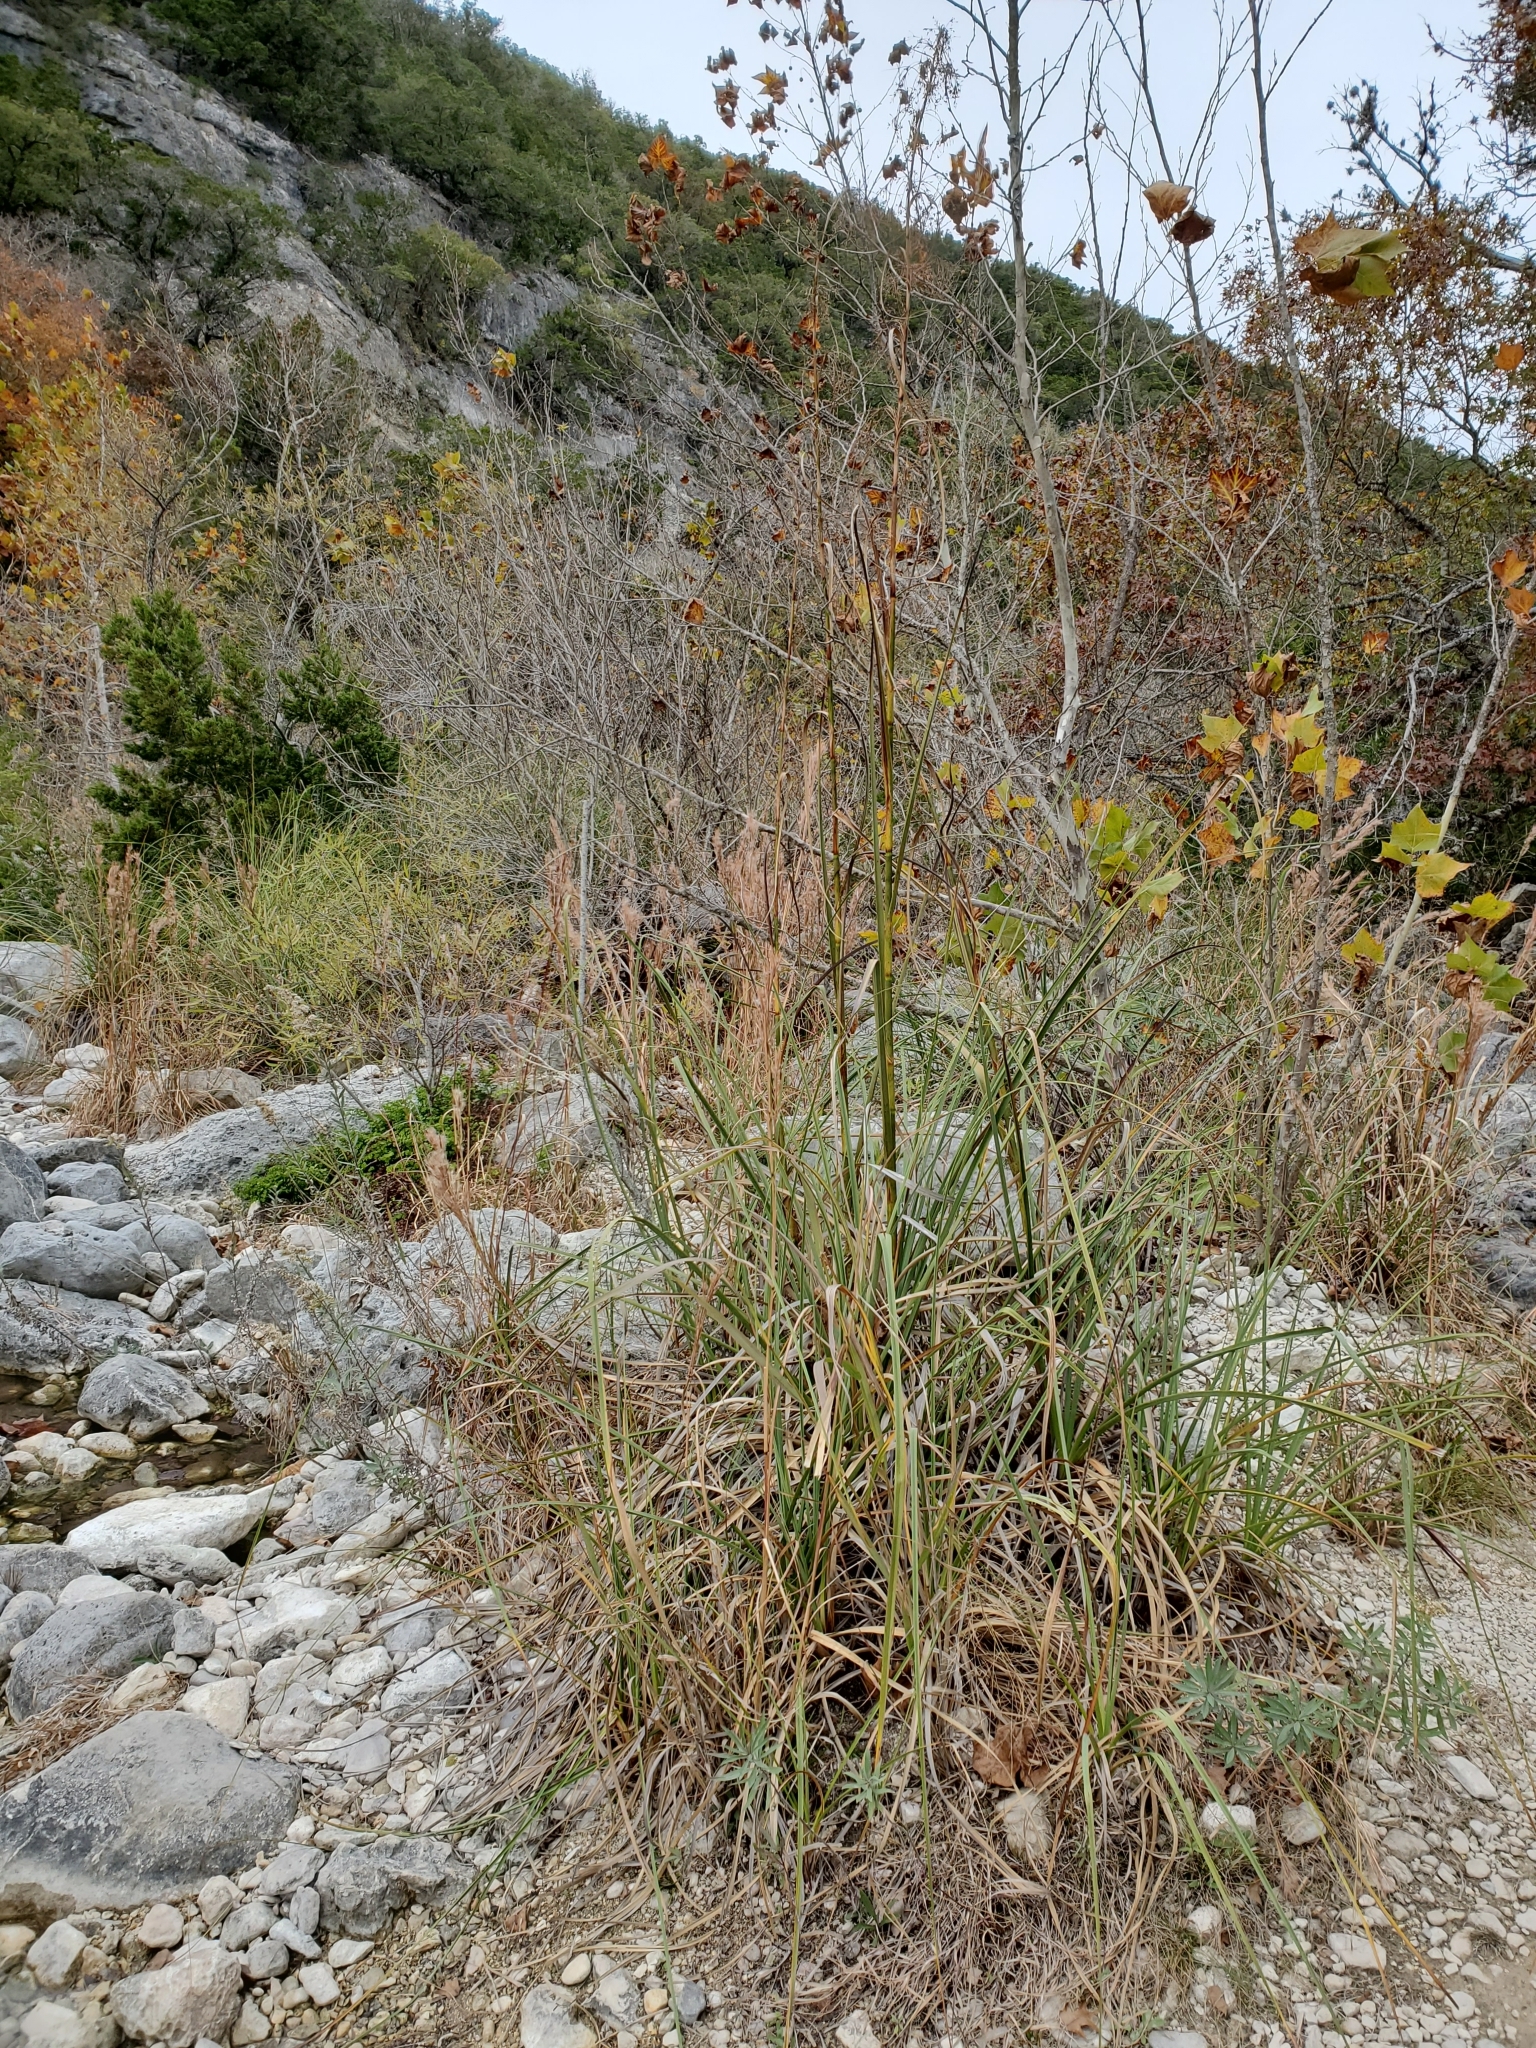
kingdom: Plantae
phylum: Tracheophyta
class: Liliopsida
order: Poales
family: Cyperaceae
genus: Cladium
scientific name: Cladium mariscus
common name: Great fen-sedge
